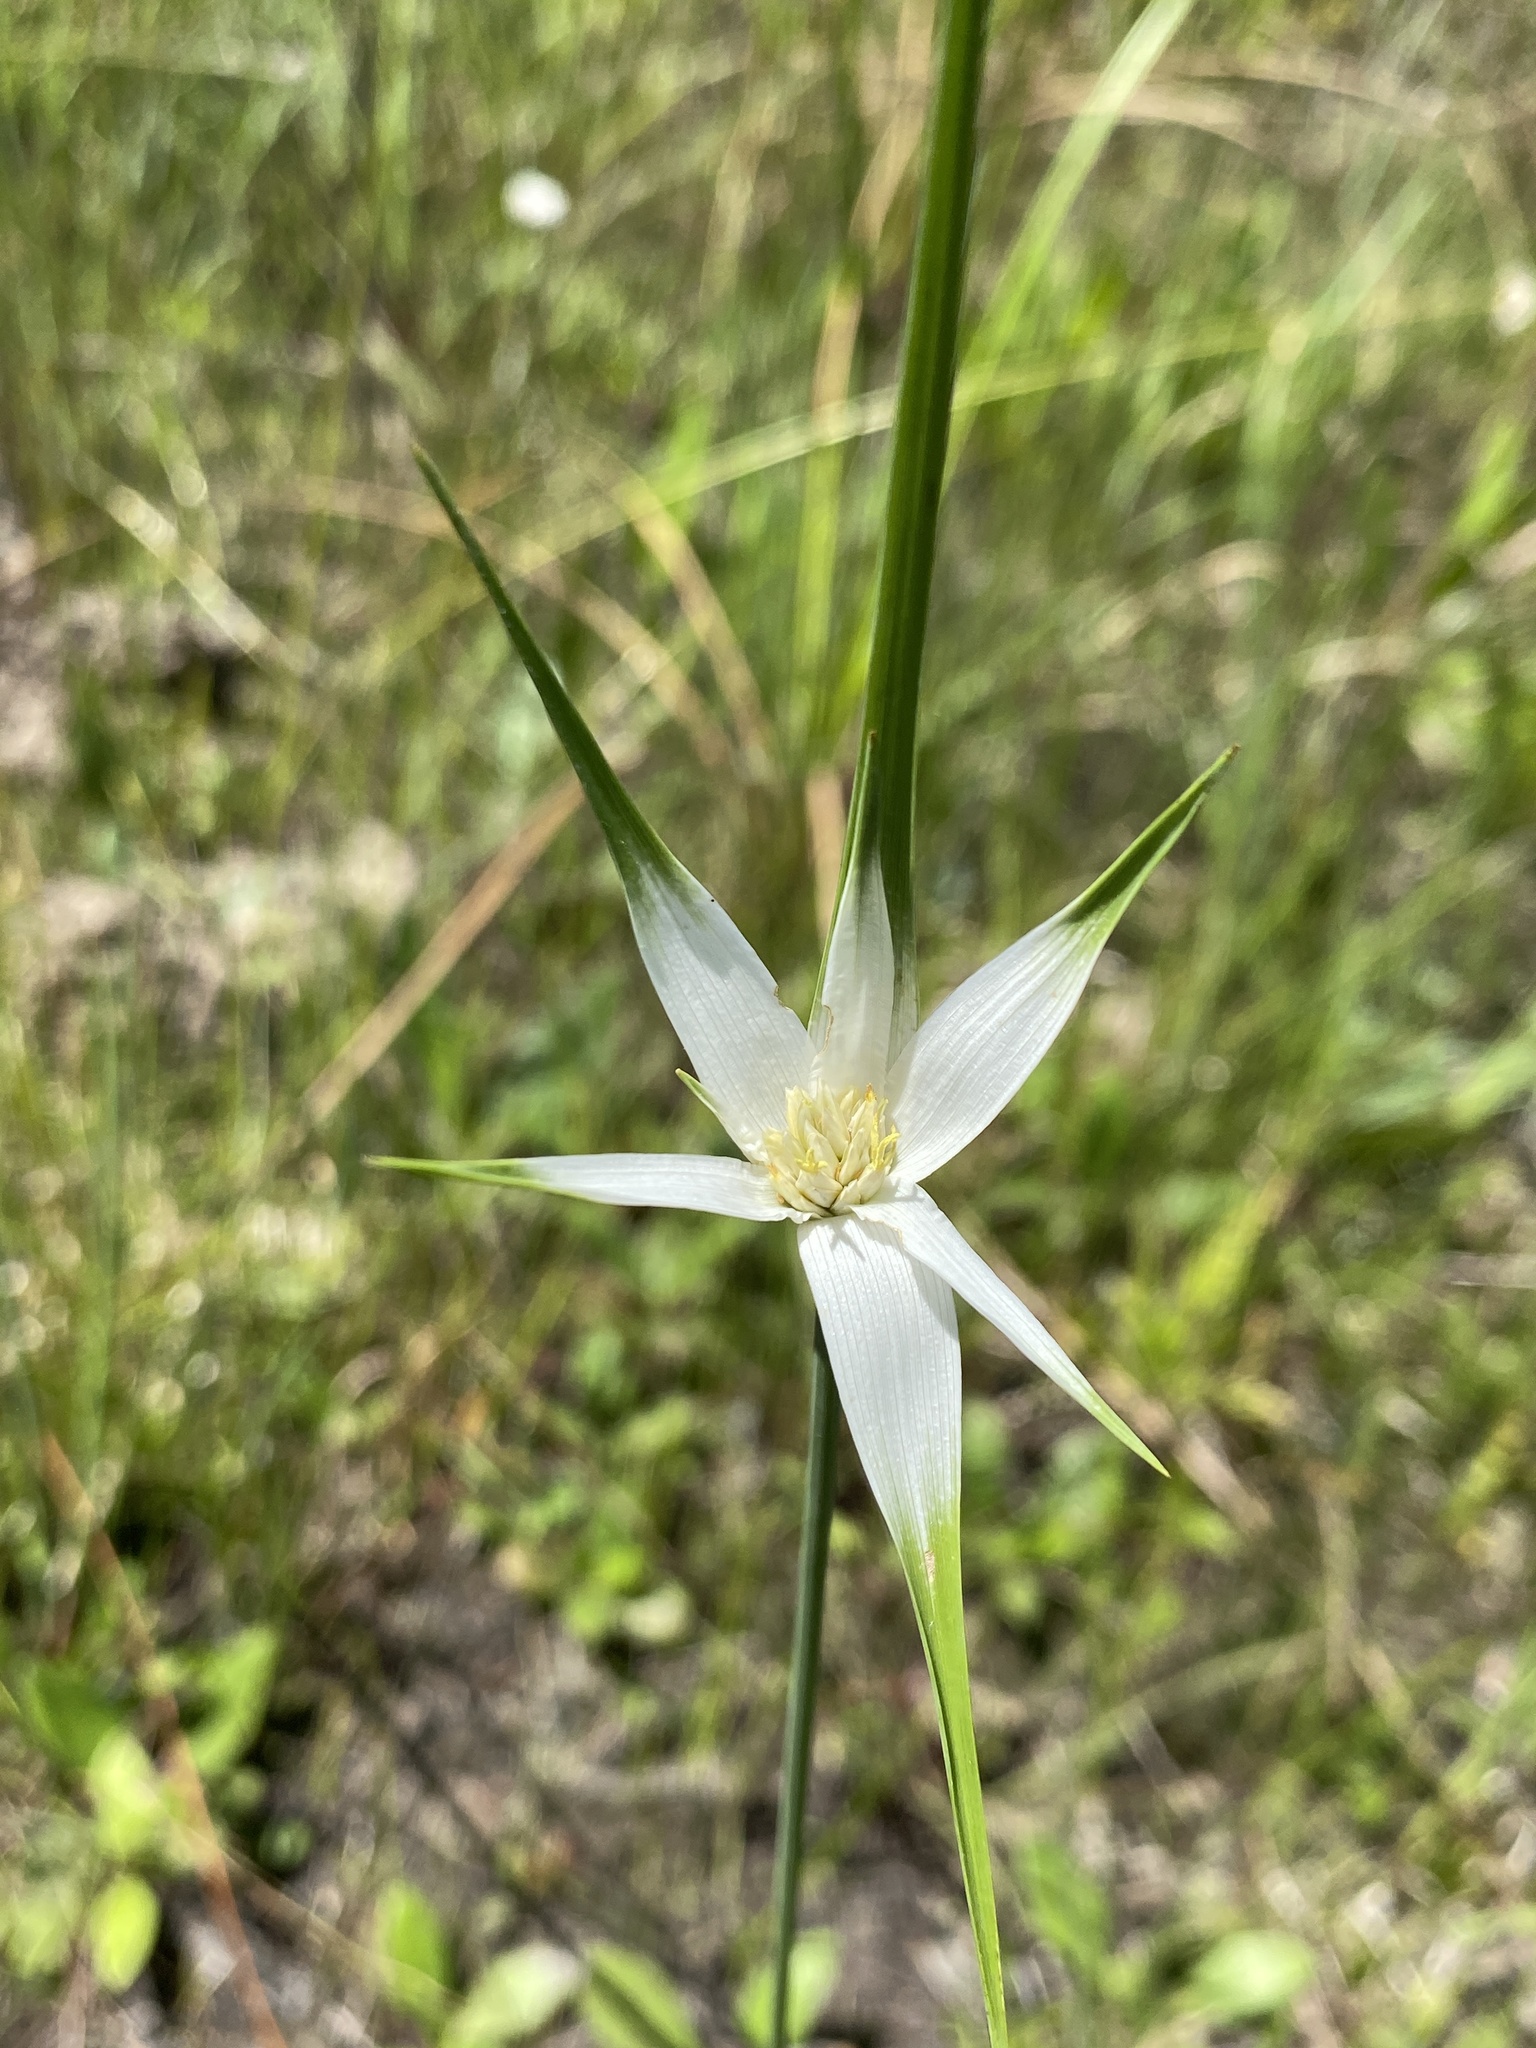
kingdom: Plantae
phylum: Tracheophyta
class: Liliopsida
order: Poales
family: Cyperaceae
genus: Rhynchospora
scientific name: Rhynchospora latifolia
